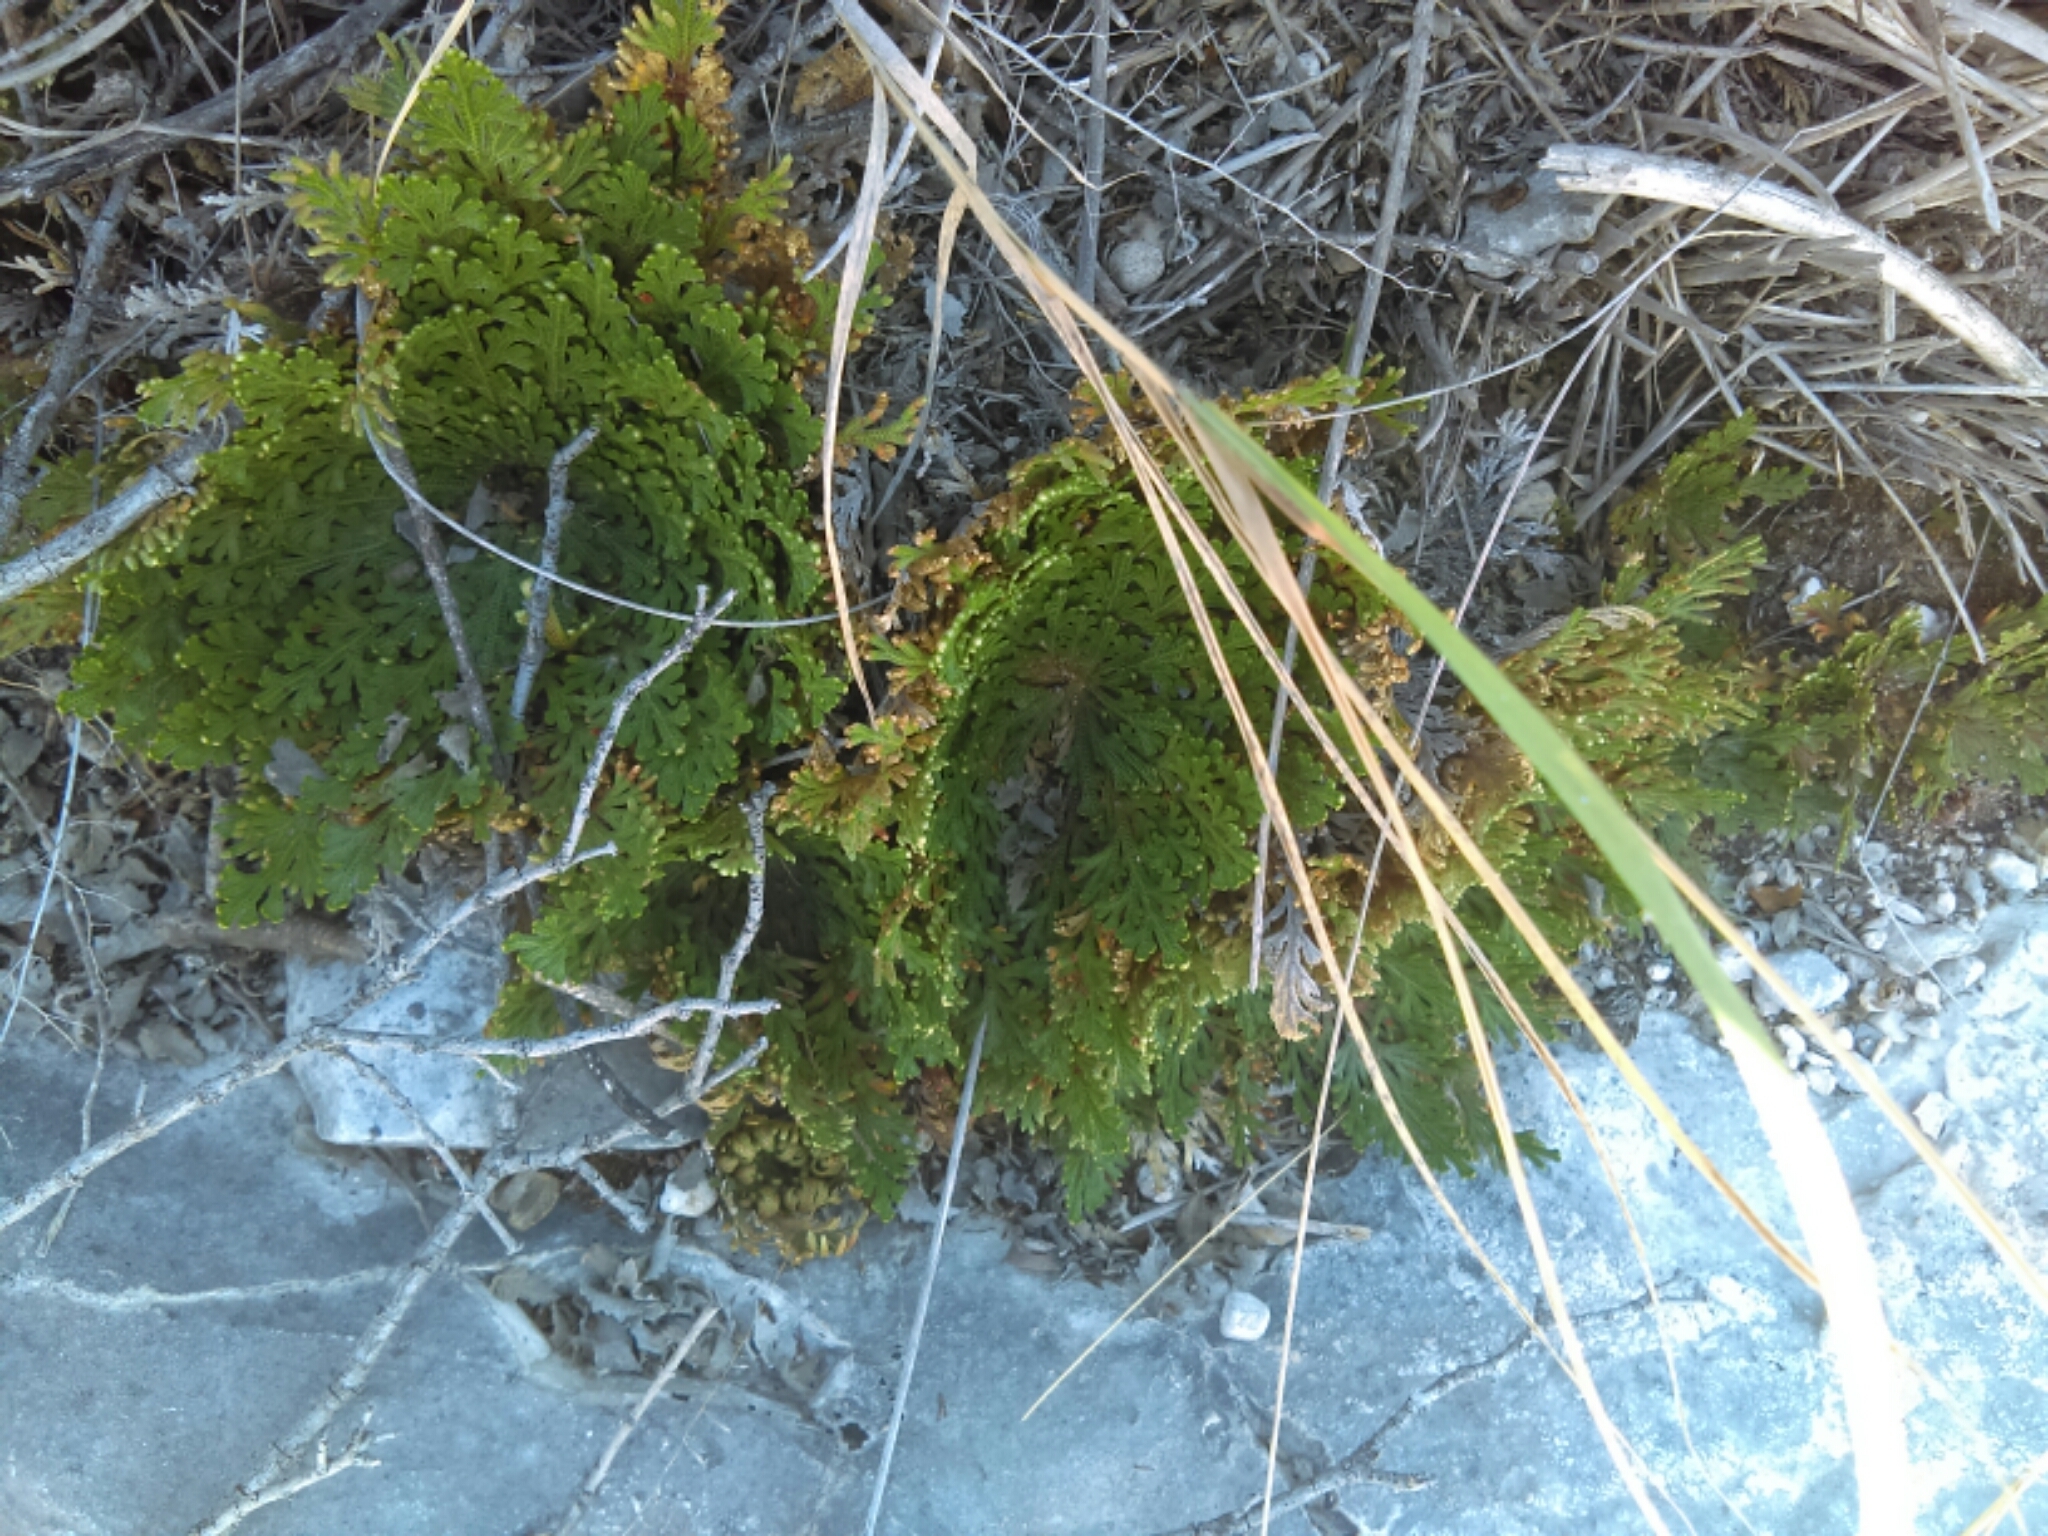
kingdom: Plantae
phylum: Tracheophyta
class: Lycopodiopsida
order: Selaginellales
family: Selaginellaceae
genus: Selaginella
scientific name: Selaginella lepidophylla
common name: Rose-of-jericho
